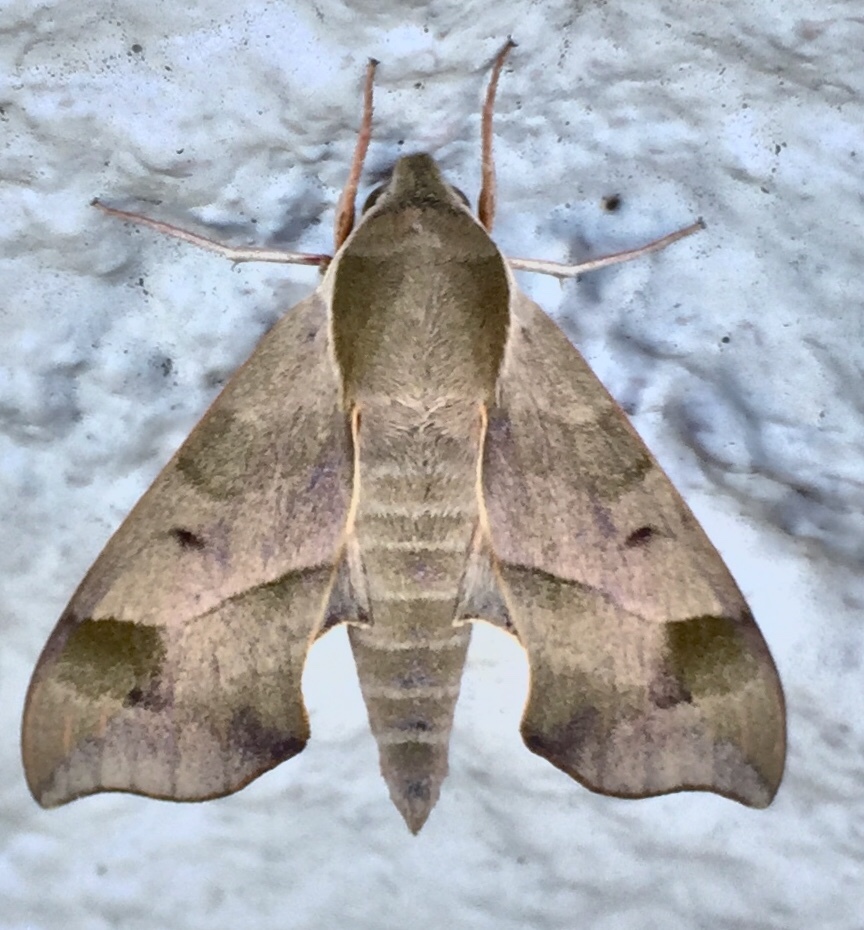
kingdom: Animalia
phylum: Arthropoda
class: Insecta
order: Lepidoptera
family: Sphingidae
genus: Darapsa
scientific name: Darapsa myron
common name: Hog sphinx
